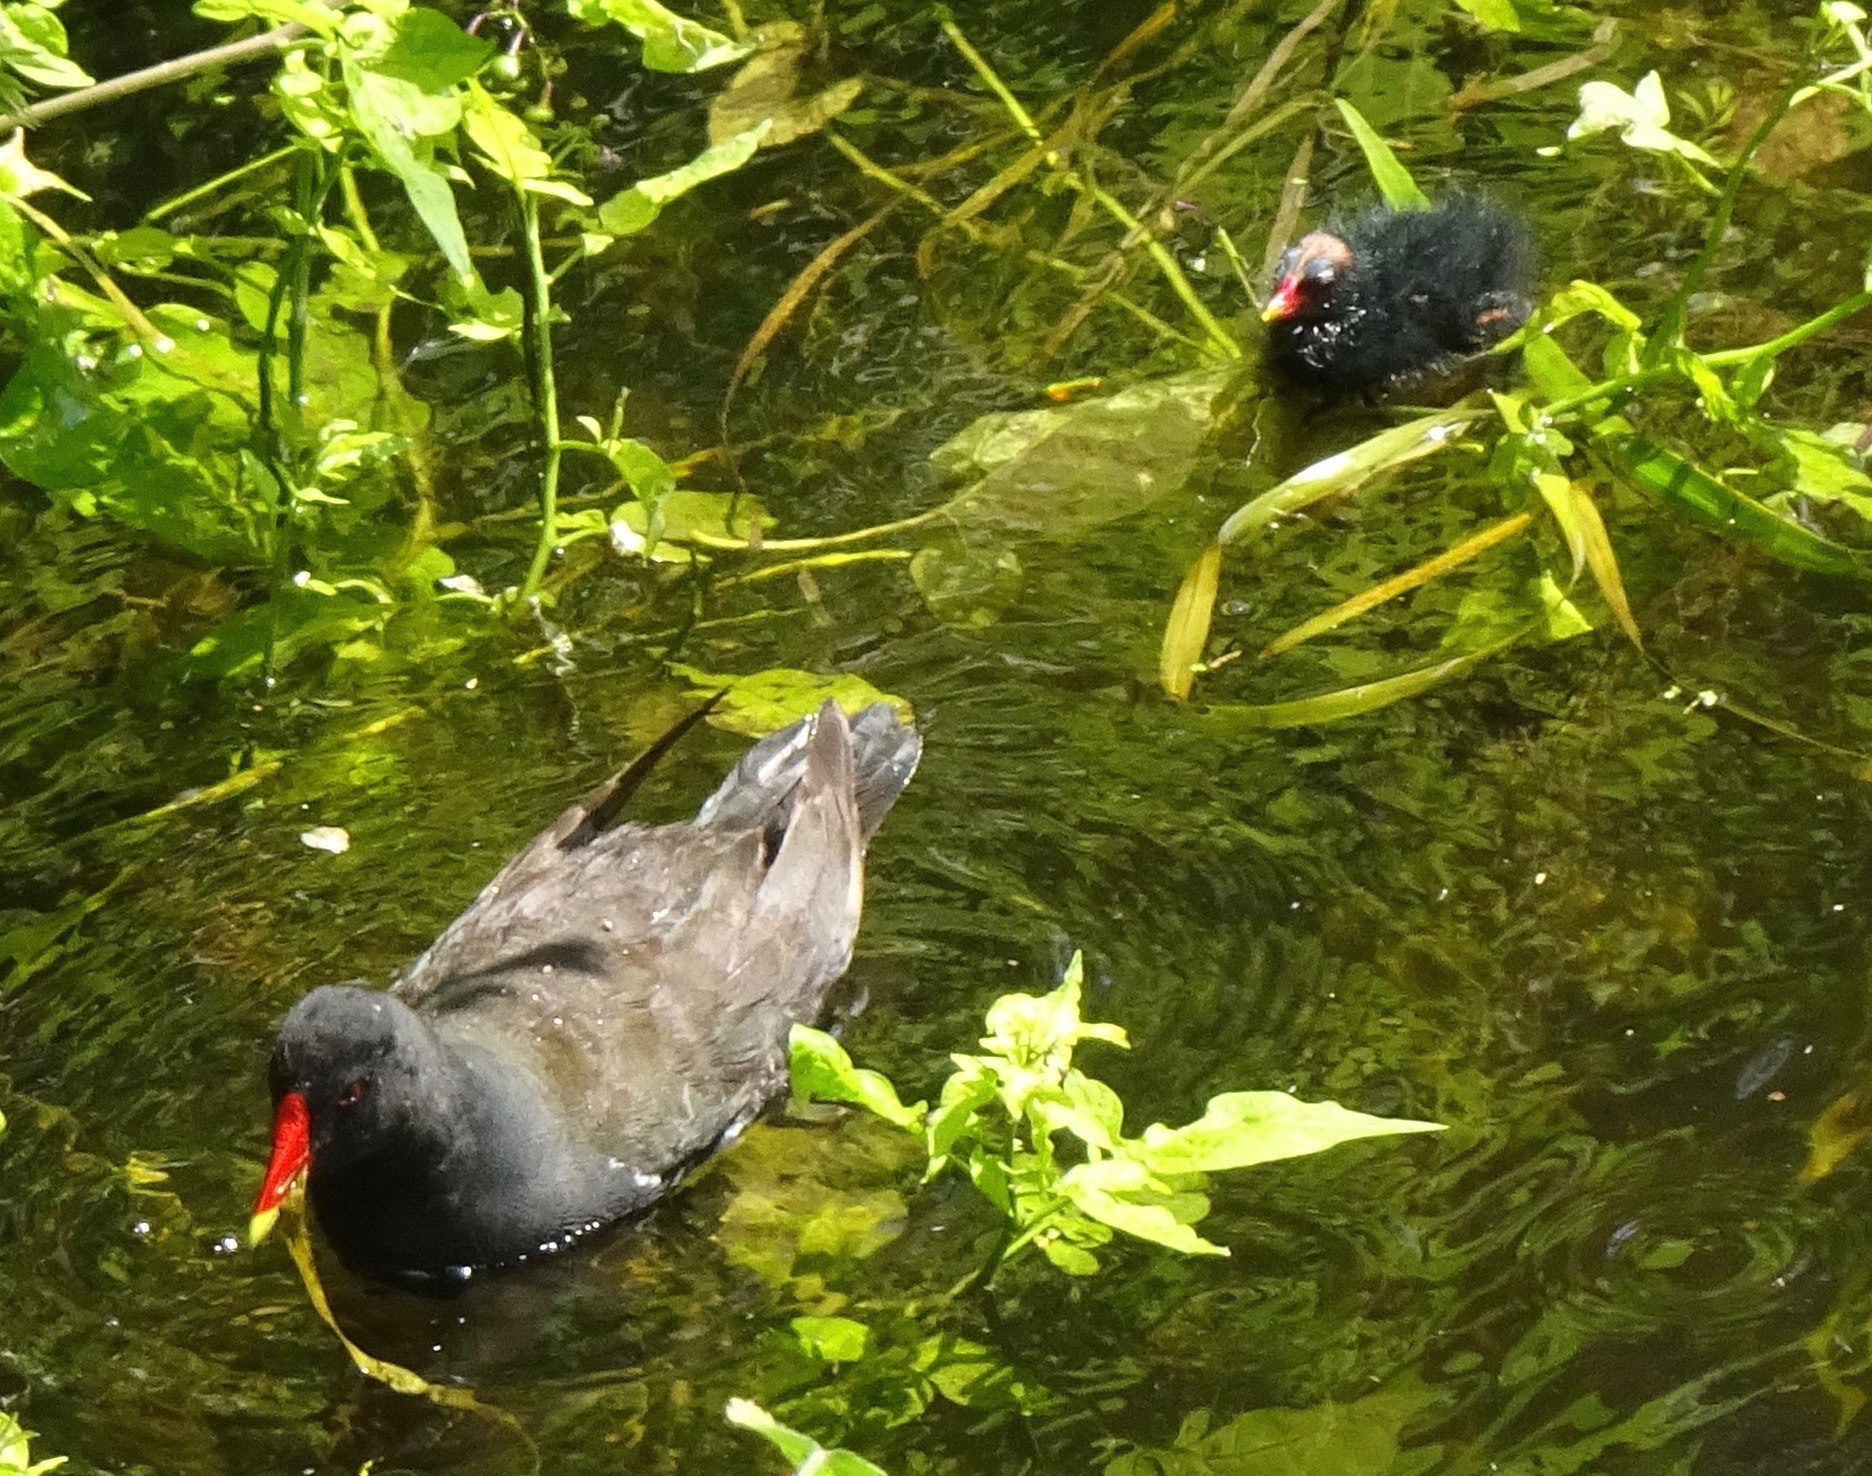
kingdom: Animalia
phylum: Chordata
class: Aves
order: Gruiformes
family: Rallidae
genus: Gallinula
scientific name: Gallinula chloropus
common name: Common moorhen
